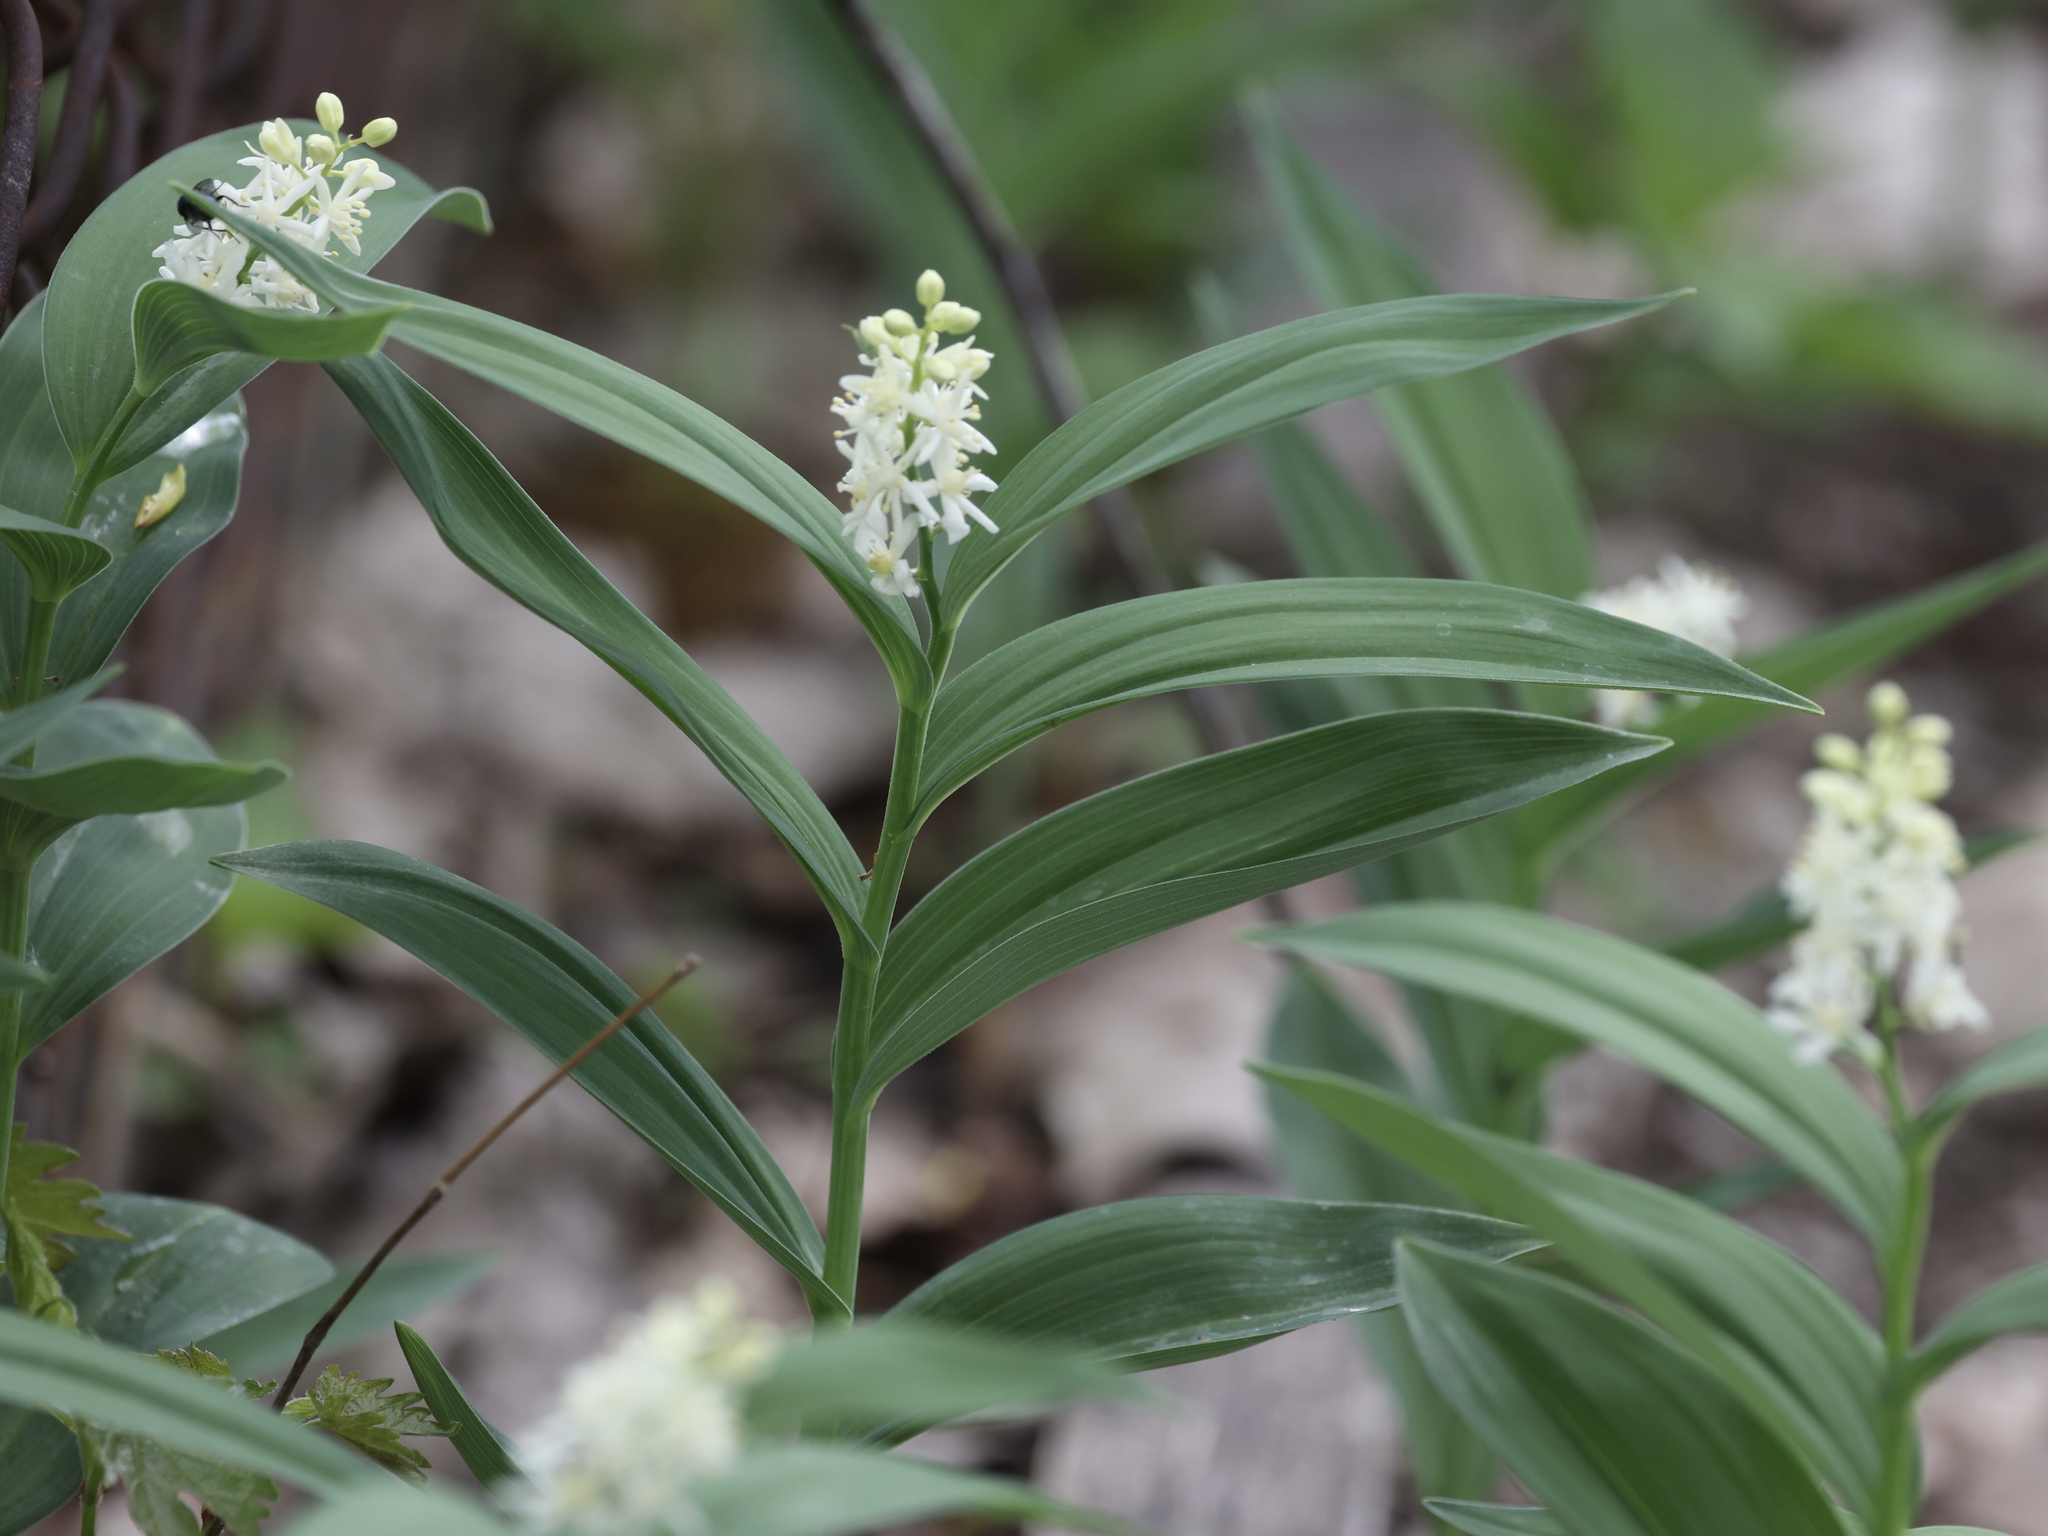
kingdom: Plantae
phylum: Tracheophyta
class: Liliopsida
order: Asparagales
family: Asparagaceae
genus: Maianthemum
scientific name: Maianthemum stellatum
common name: Little false solomon's seal
